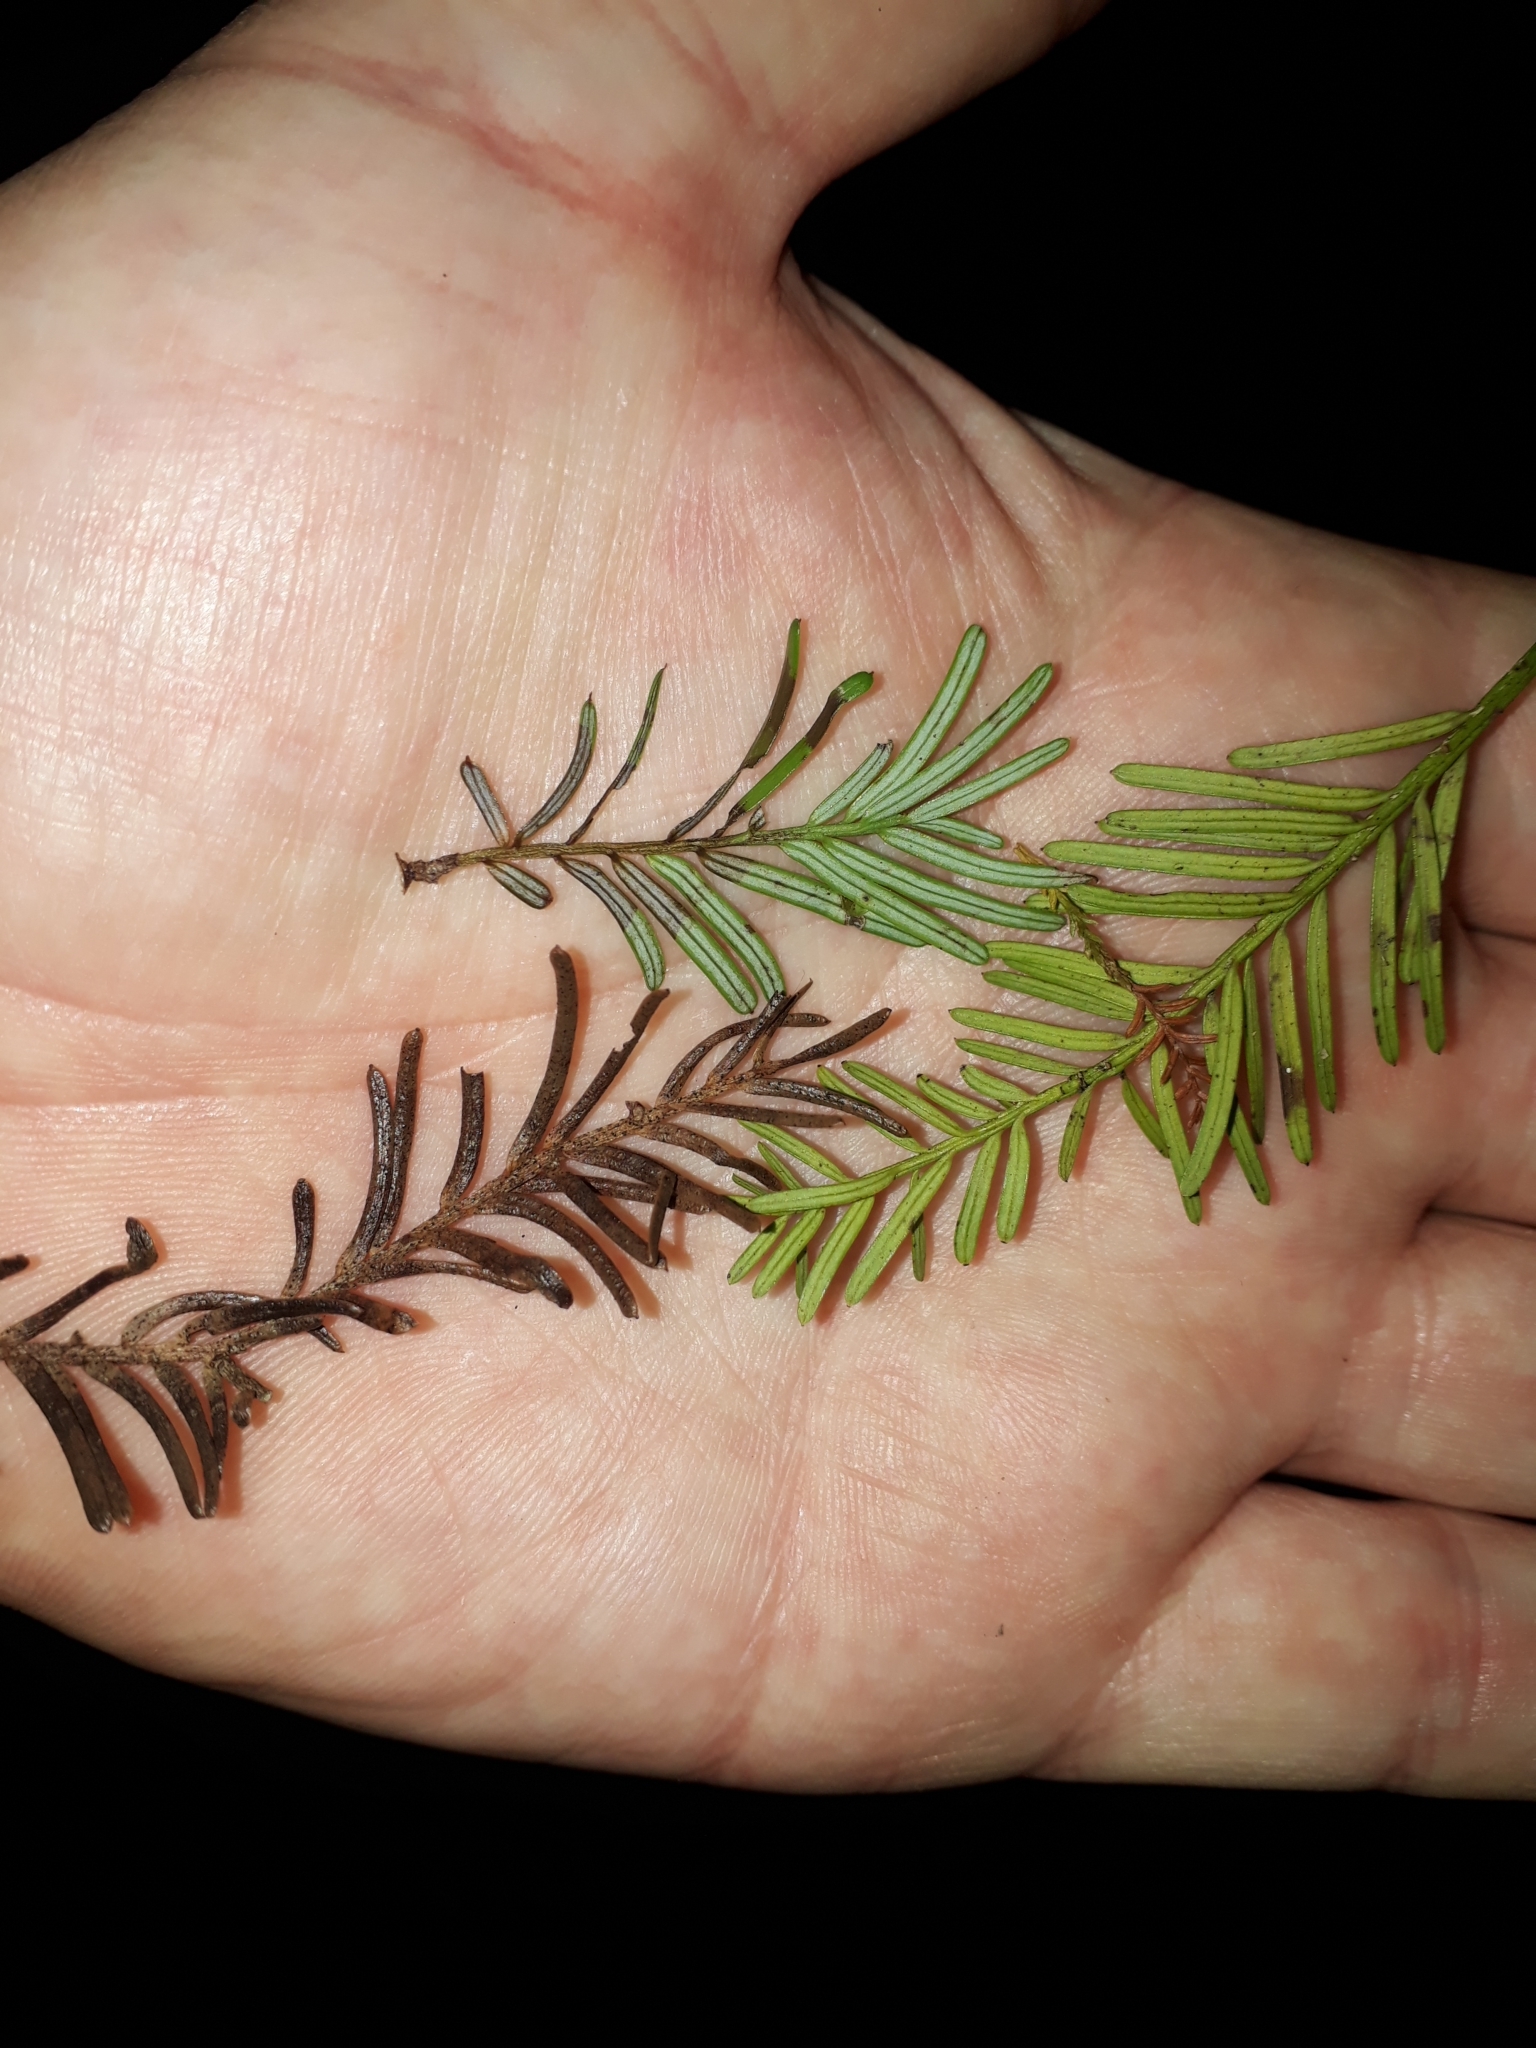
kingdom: Plantae
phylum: Tracheophyta
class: Pinopsida
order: Pinales
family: Podocarpaceae
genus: Prumnopitys
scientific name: Prumnopitys taxifolia
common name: Matai
